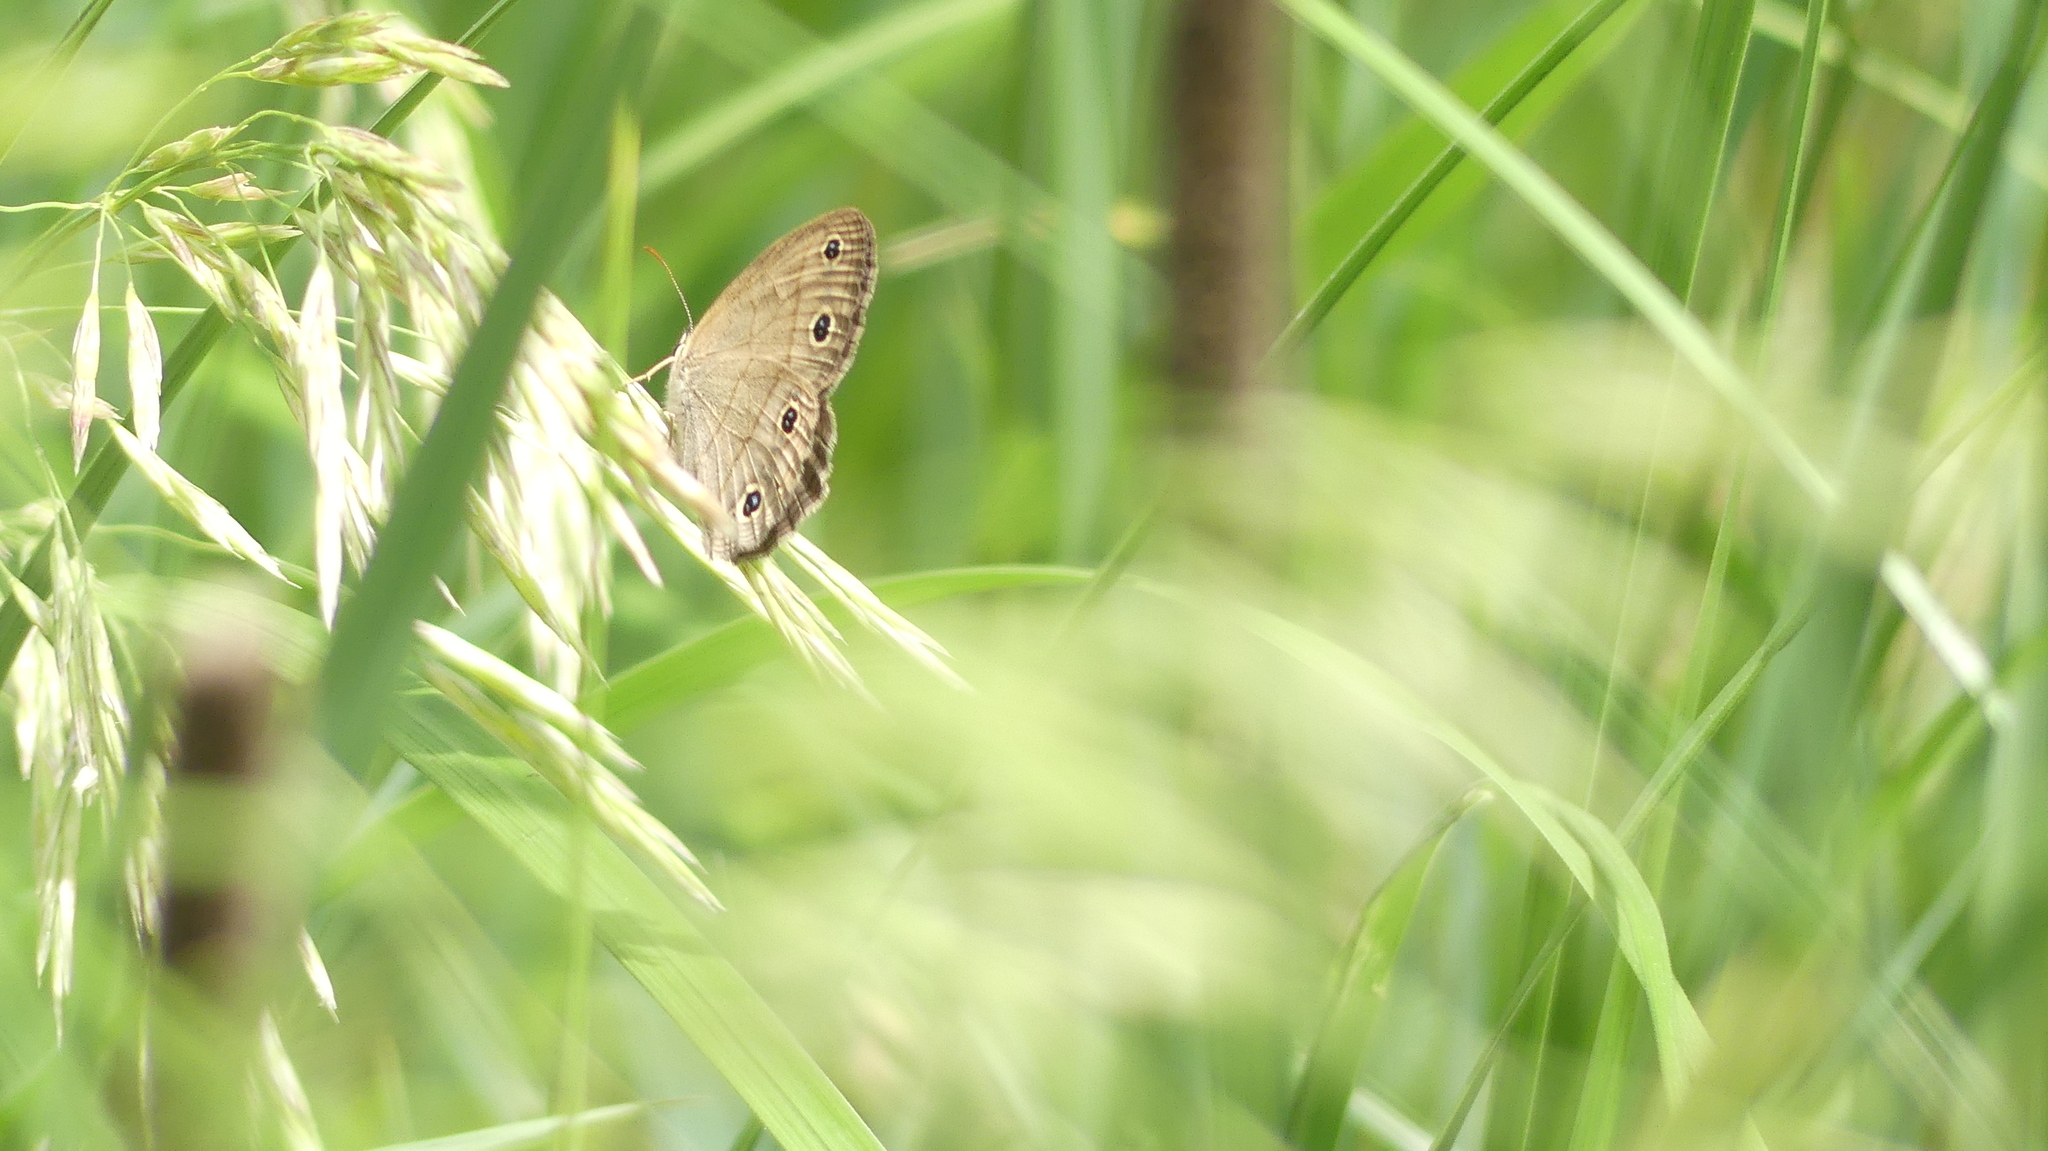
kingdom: Animalia
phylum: Arthropoda
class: Insecta
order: Lepidoptera
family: Nymphalidae
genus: Euptychia
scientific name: Euptychia cymela
